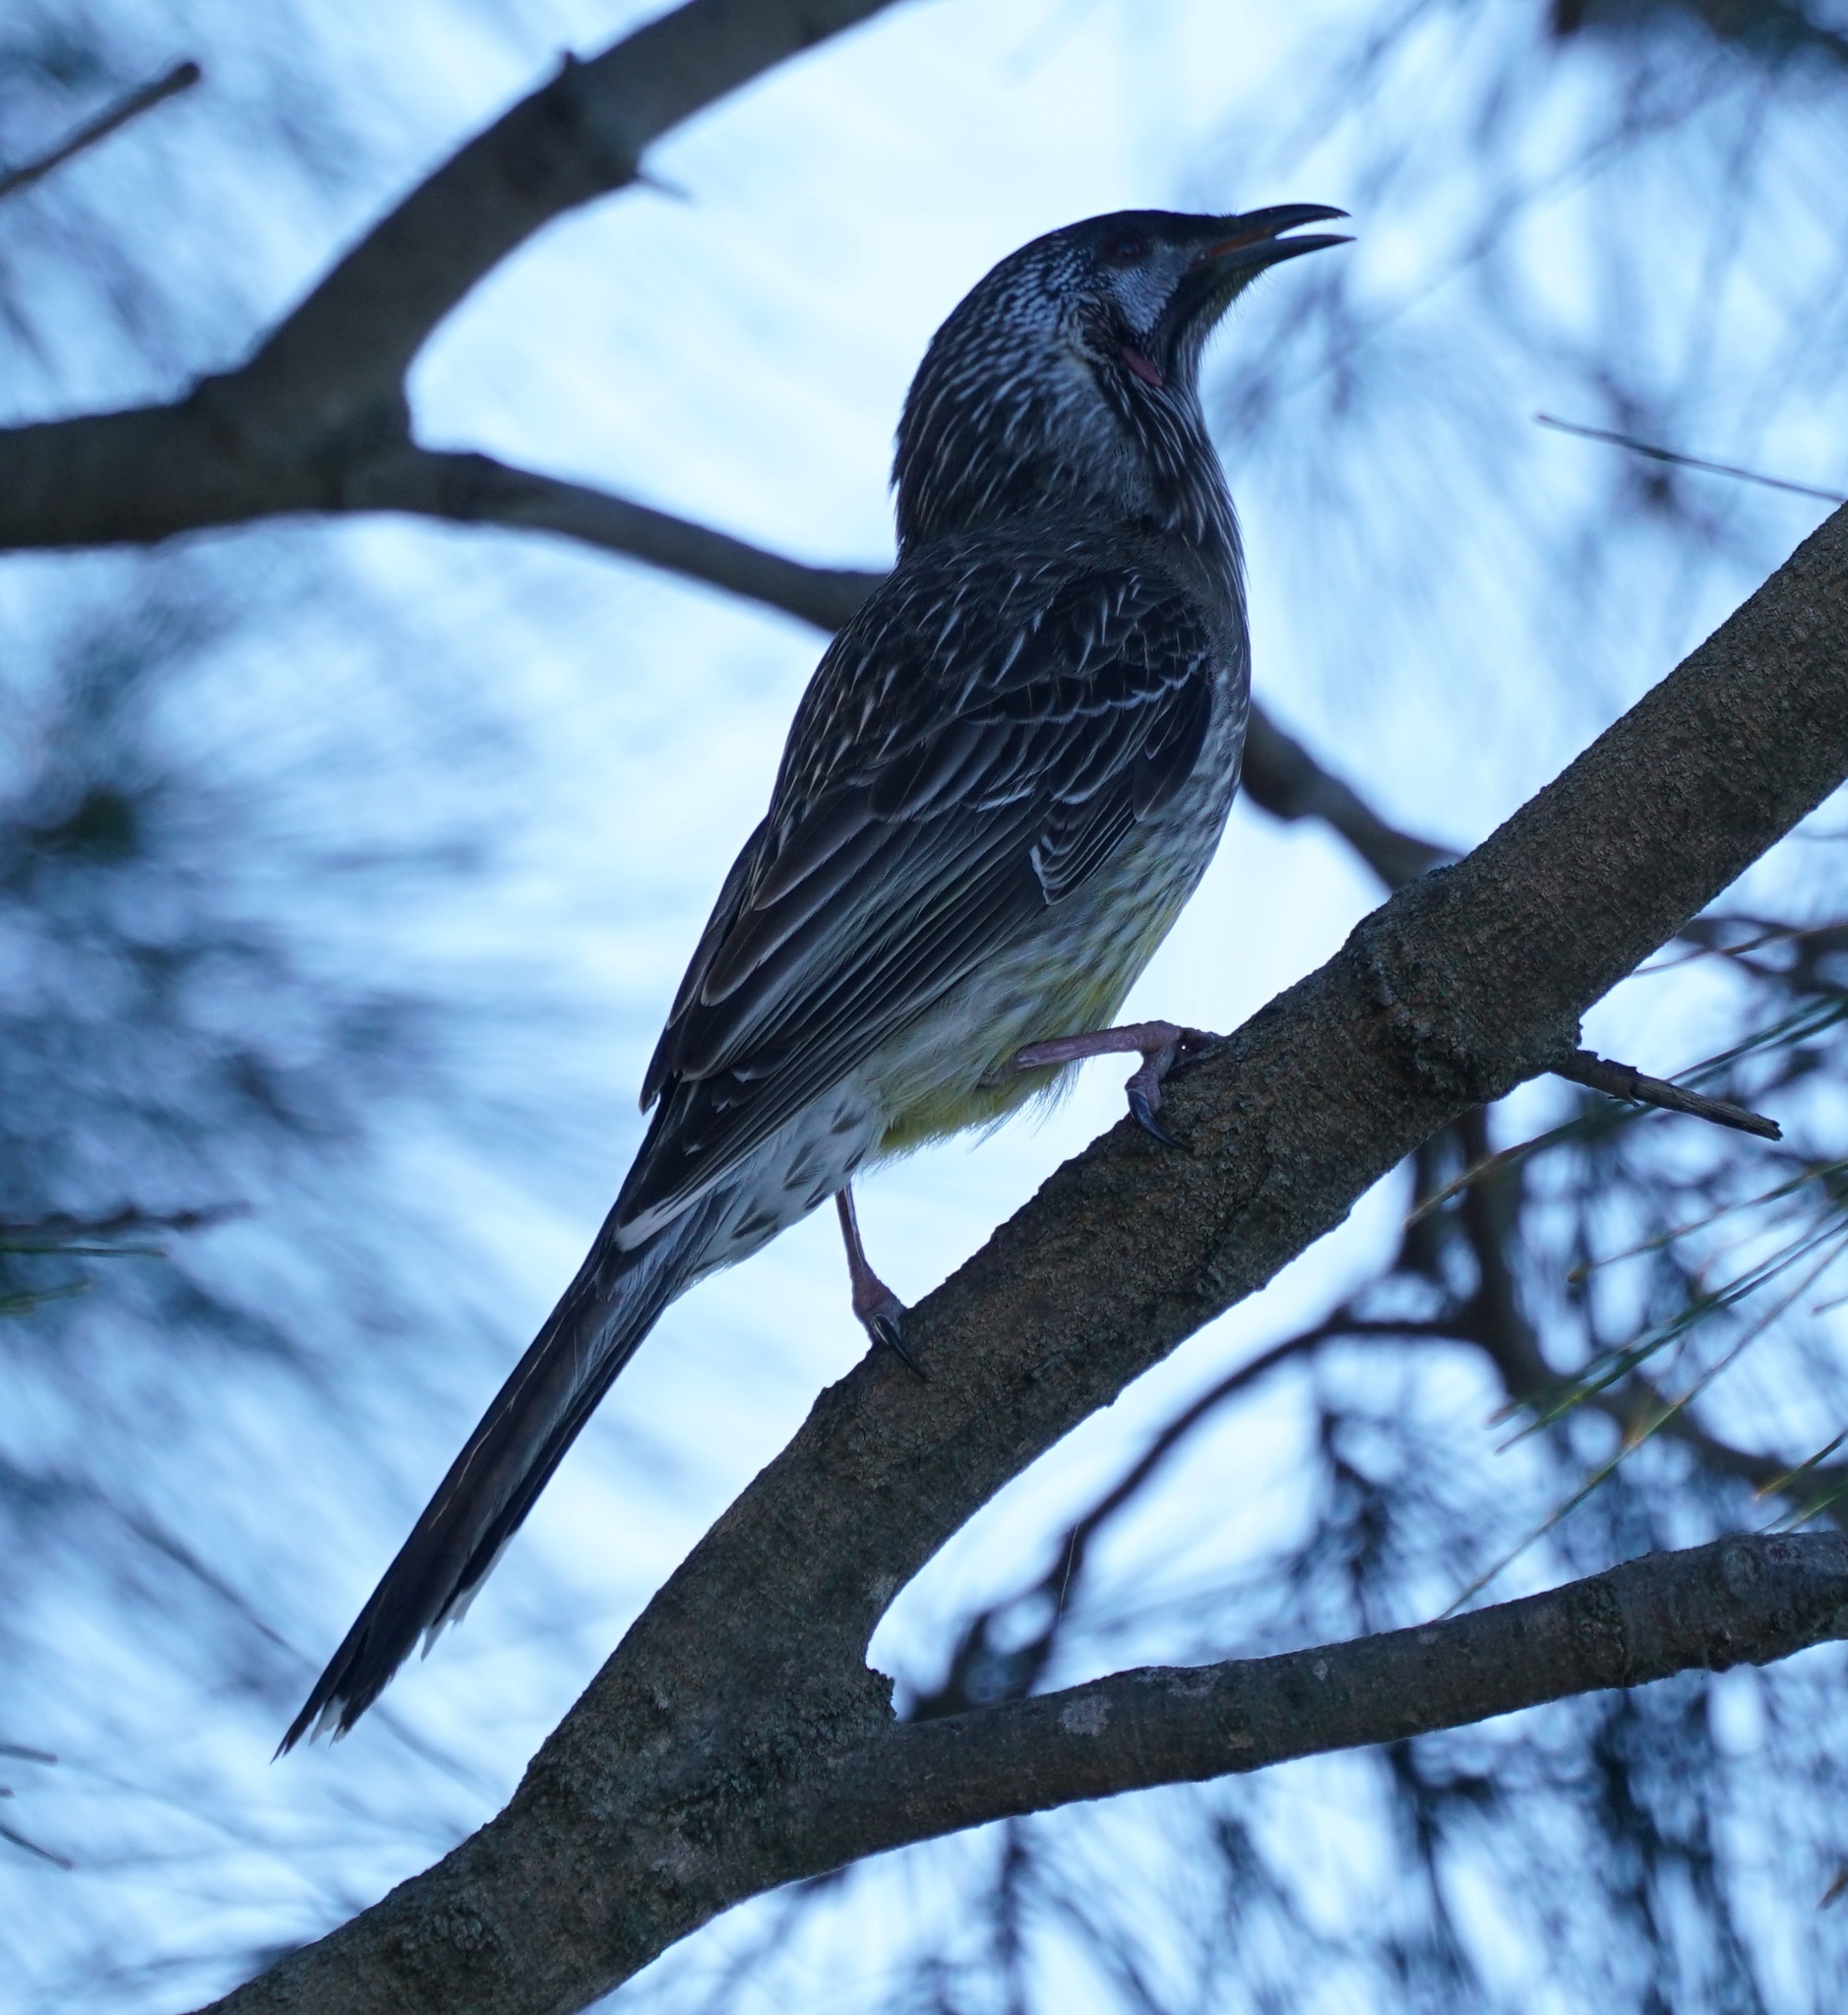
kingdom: Animalia
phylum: Chordata
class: Aves
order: Passeriformes
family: Meliphagidae
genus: Anthochaera
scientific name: Anthochaera carunculata
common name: Red wattlebird
